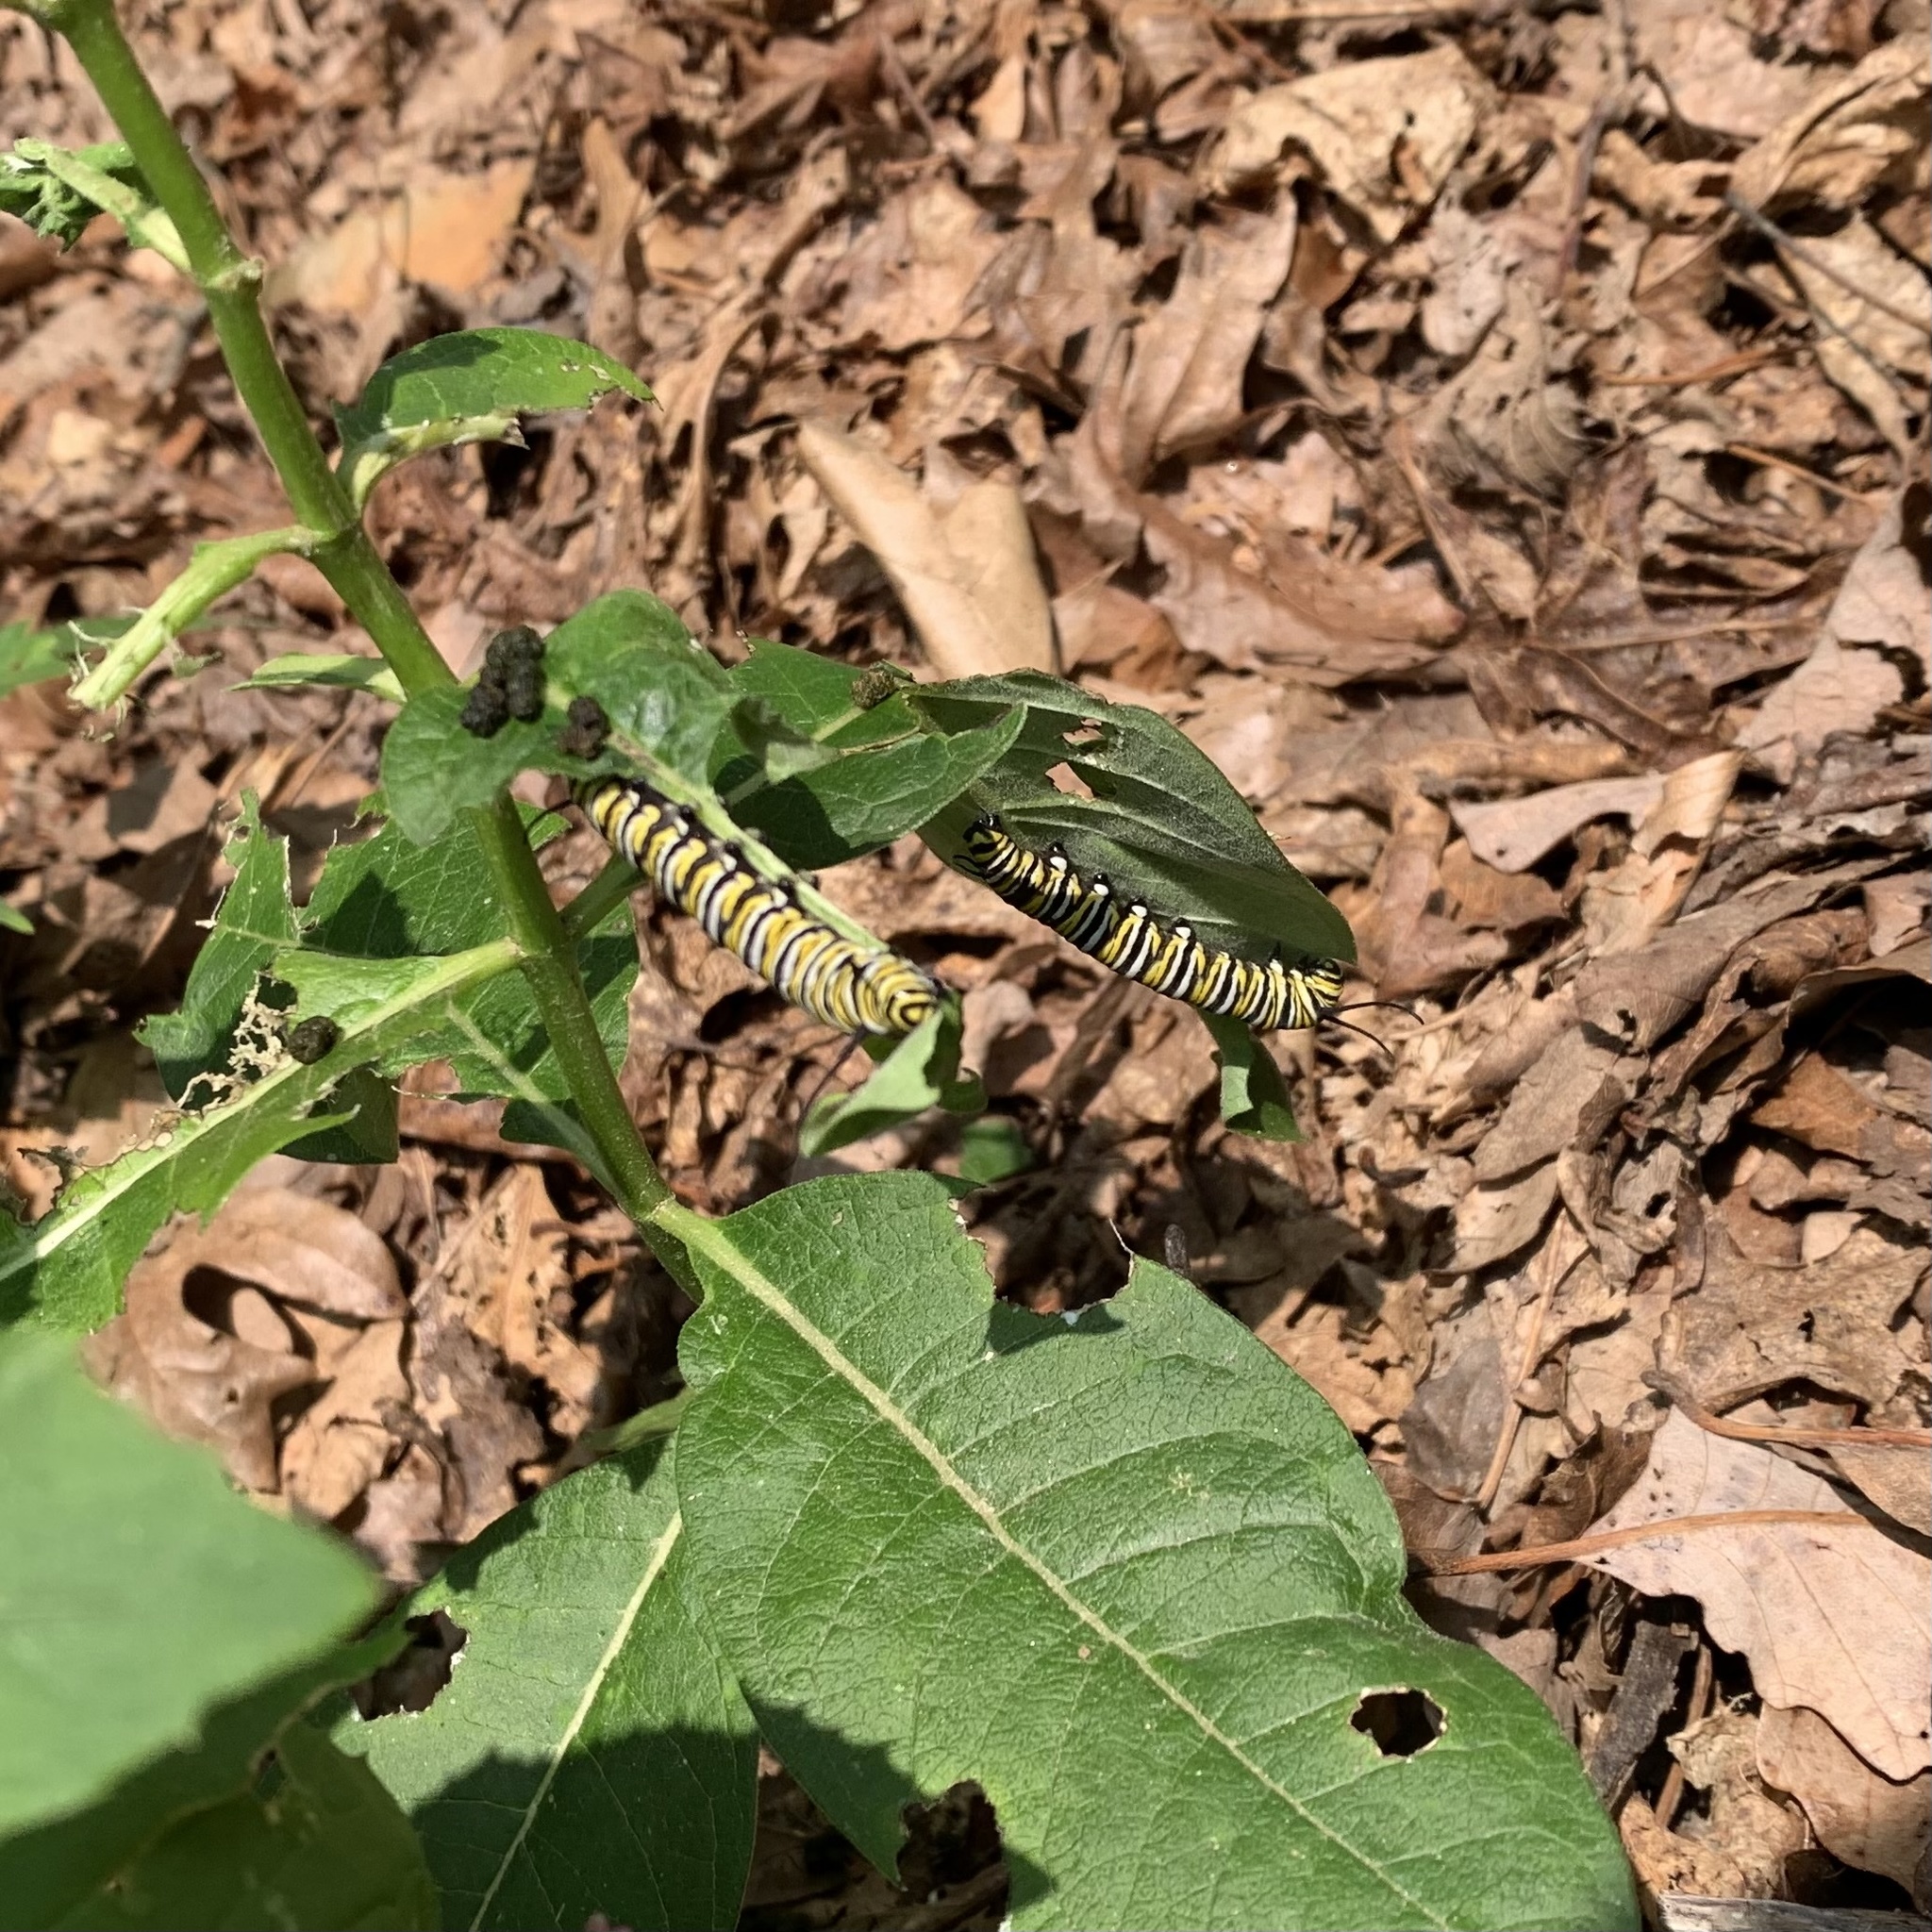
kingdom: Animalia
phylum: Arthropoda
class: Insecta
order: Lepidoptera
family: Nymphalidae
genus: Danaus
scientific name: Danaus plexippus
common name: Monarch
